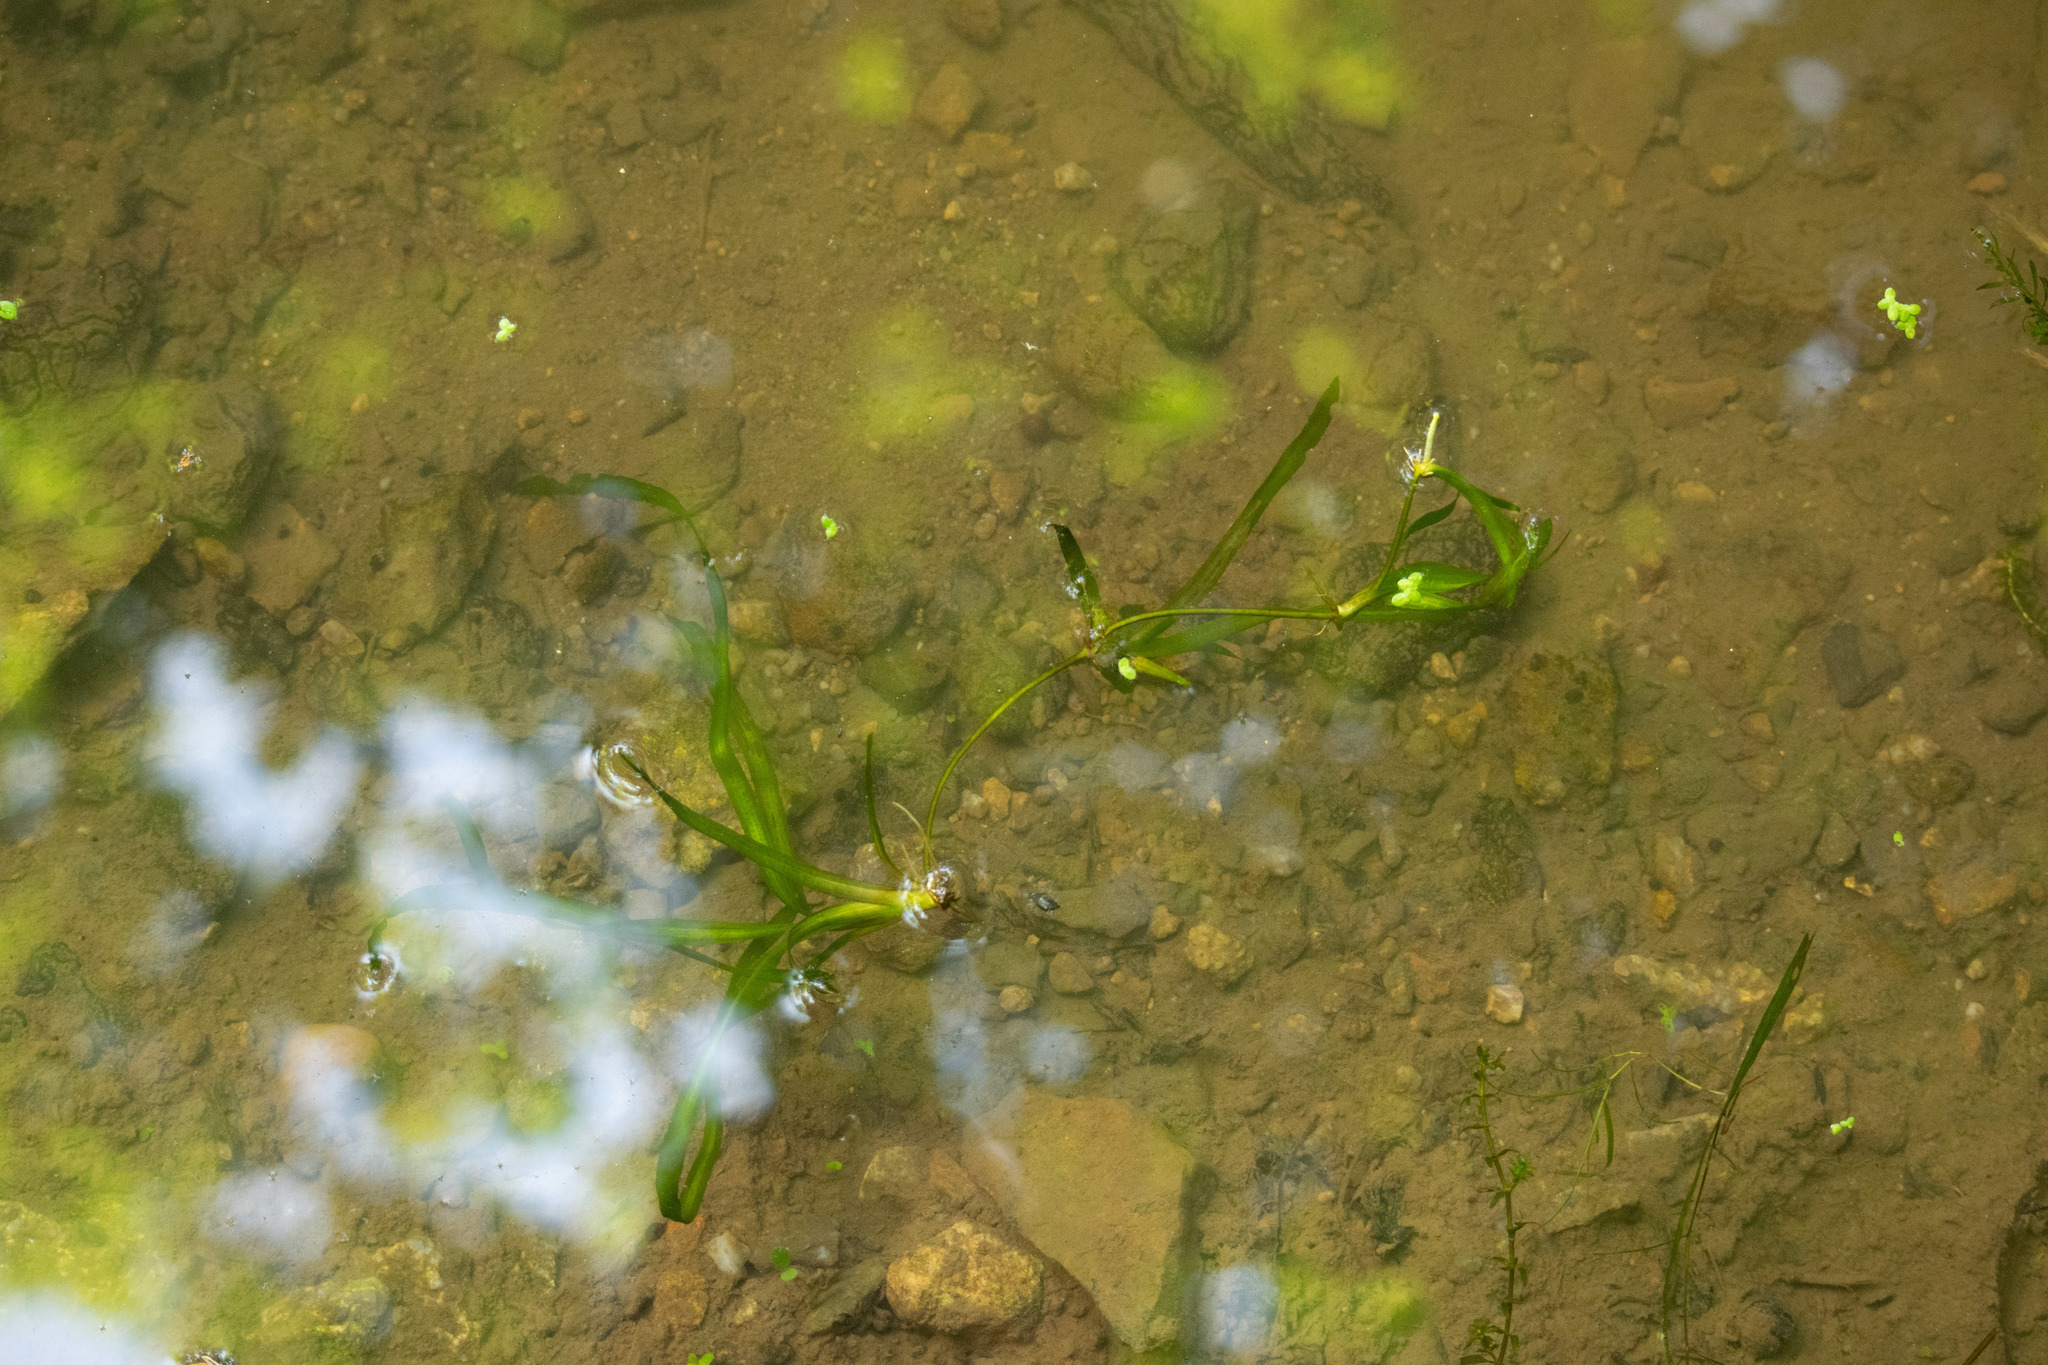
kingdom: Plantae
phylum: Tracheophyta
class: Liliopsida
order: Alismatales
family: Hydrocharitaceae
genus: Vallisneria
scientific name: Vallisneria americana
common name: American eelgrass
